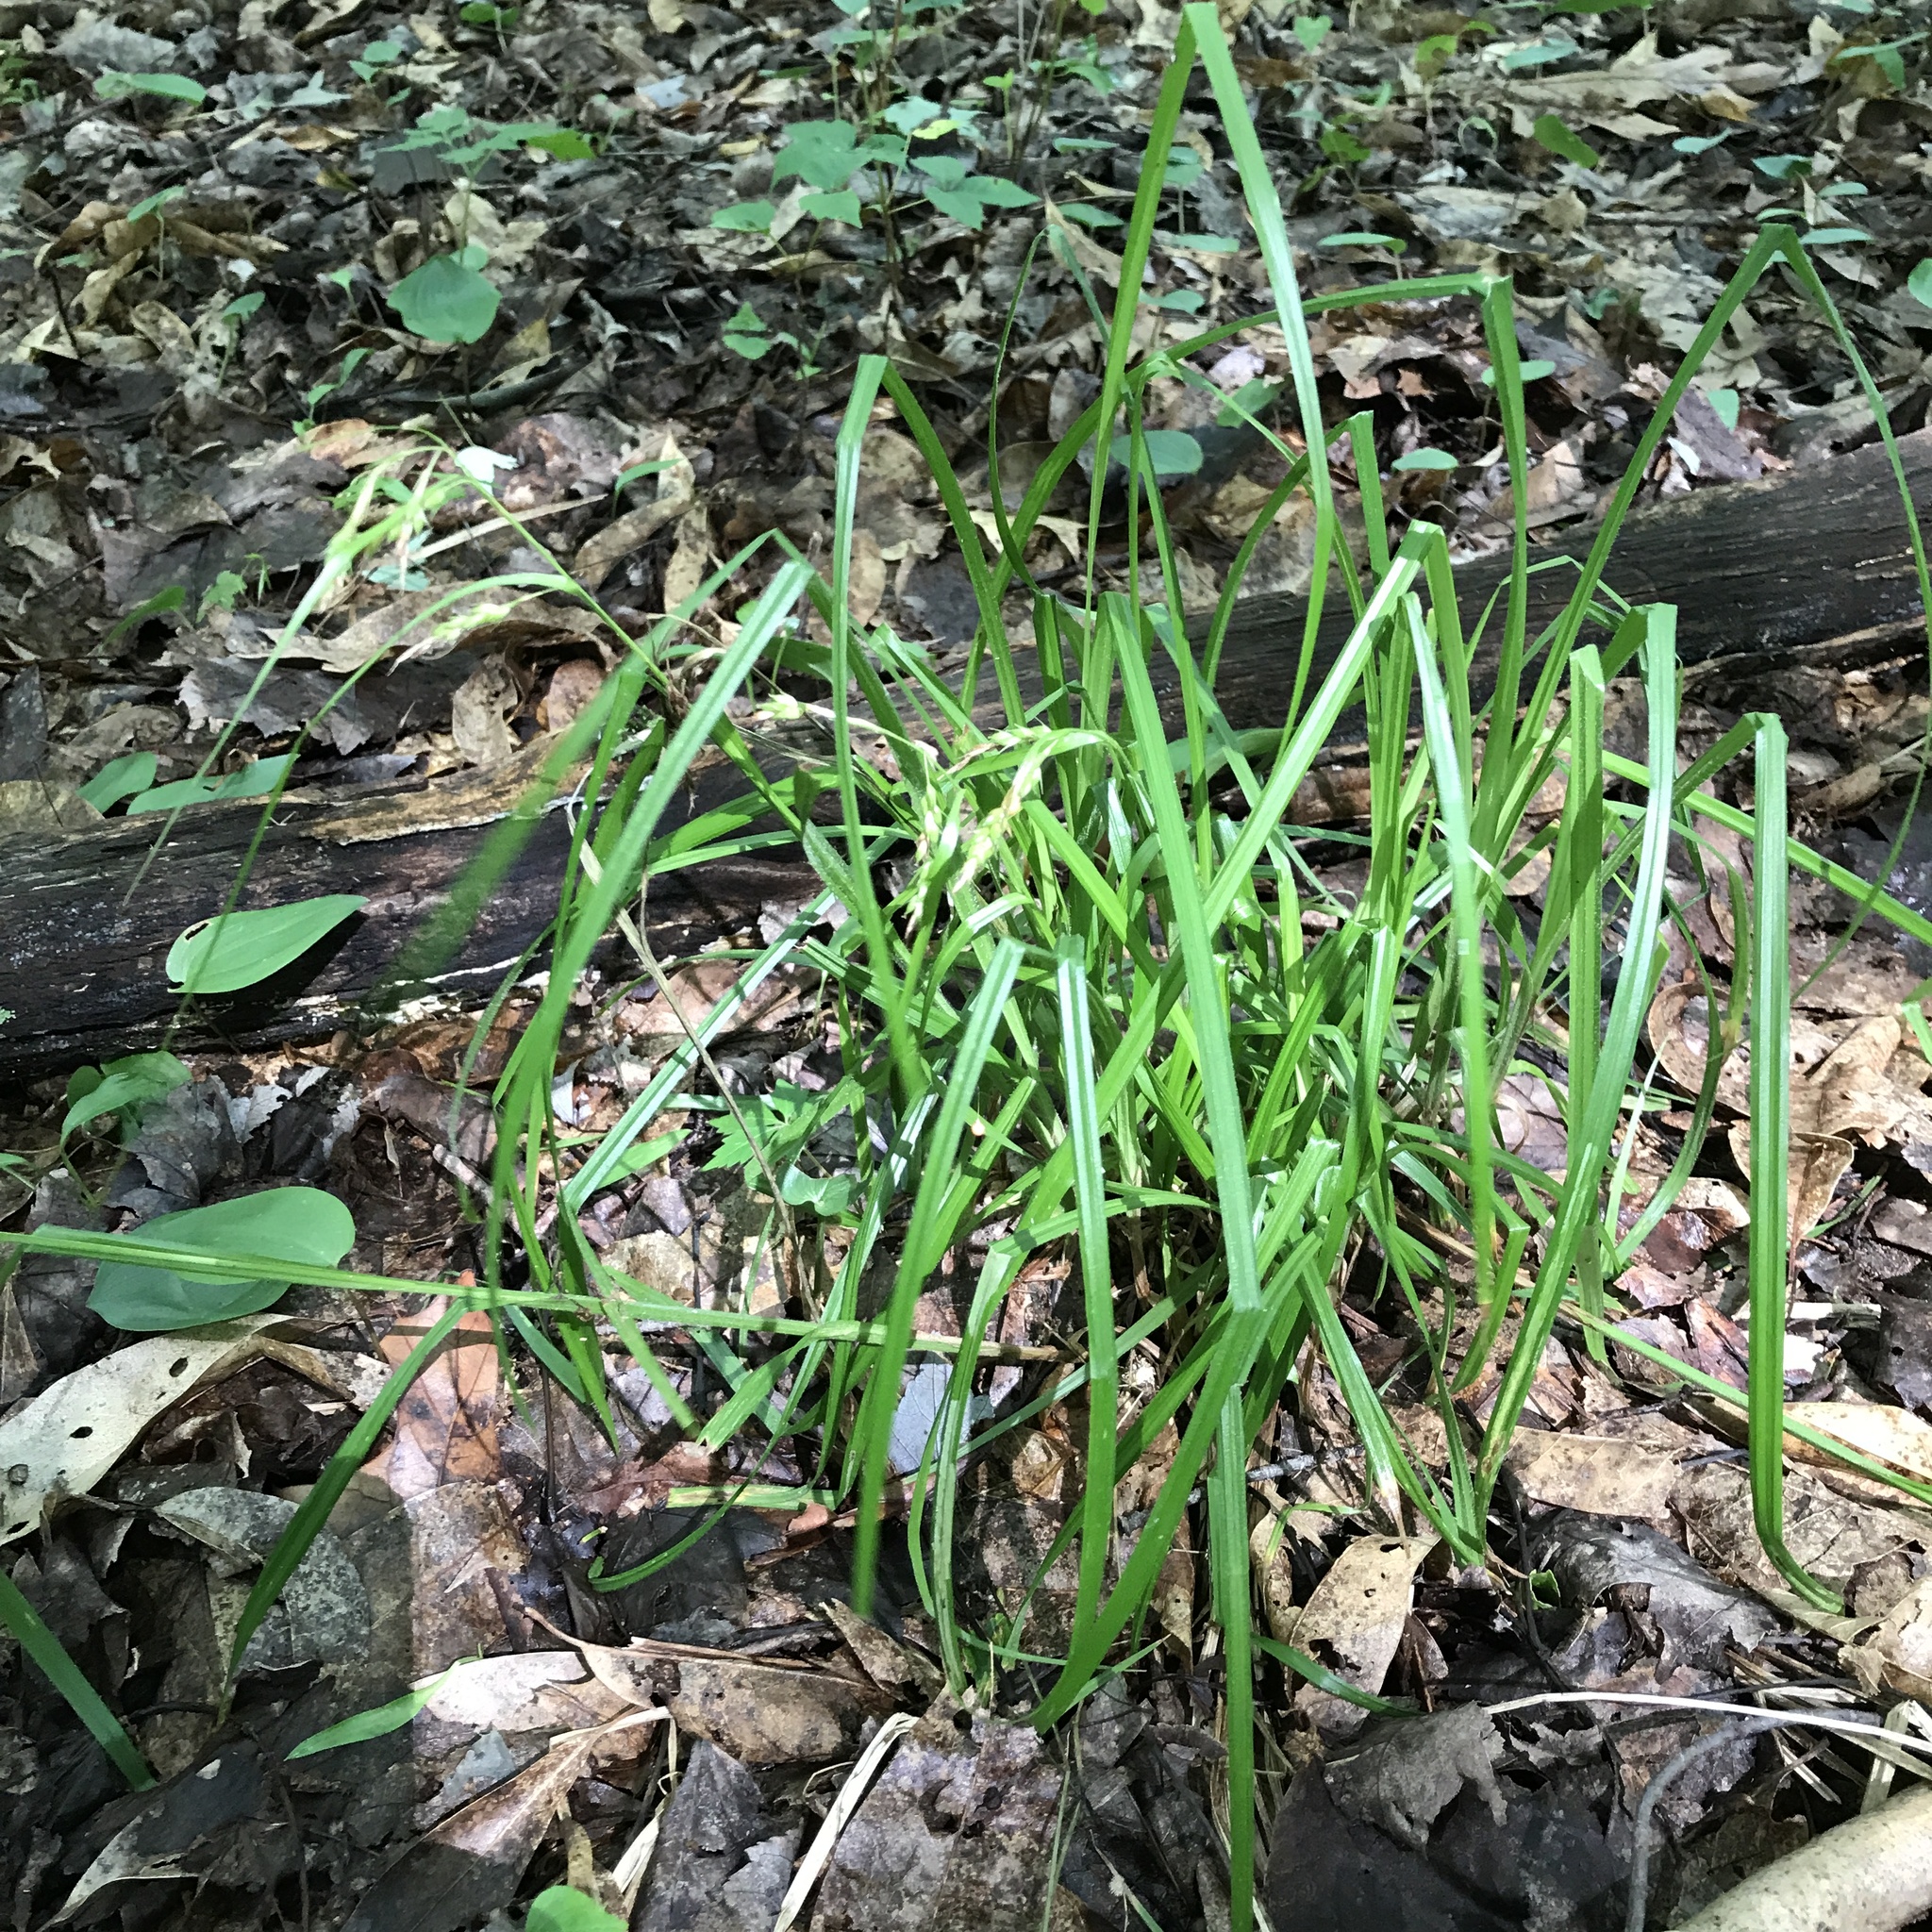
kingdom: Plantae
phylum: Tracheophyta
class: Liliopsida
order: Poales
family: Cyperaceae
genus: Carex
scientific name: Carex davisii
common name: Davis' sedge
